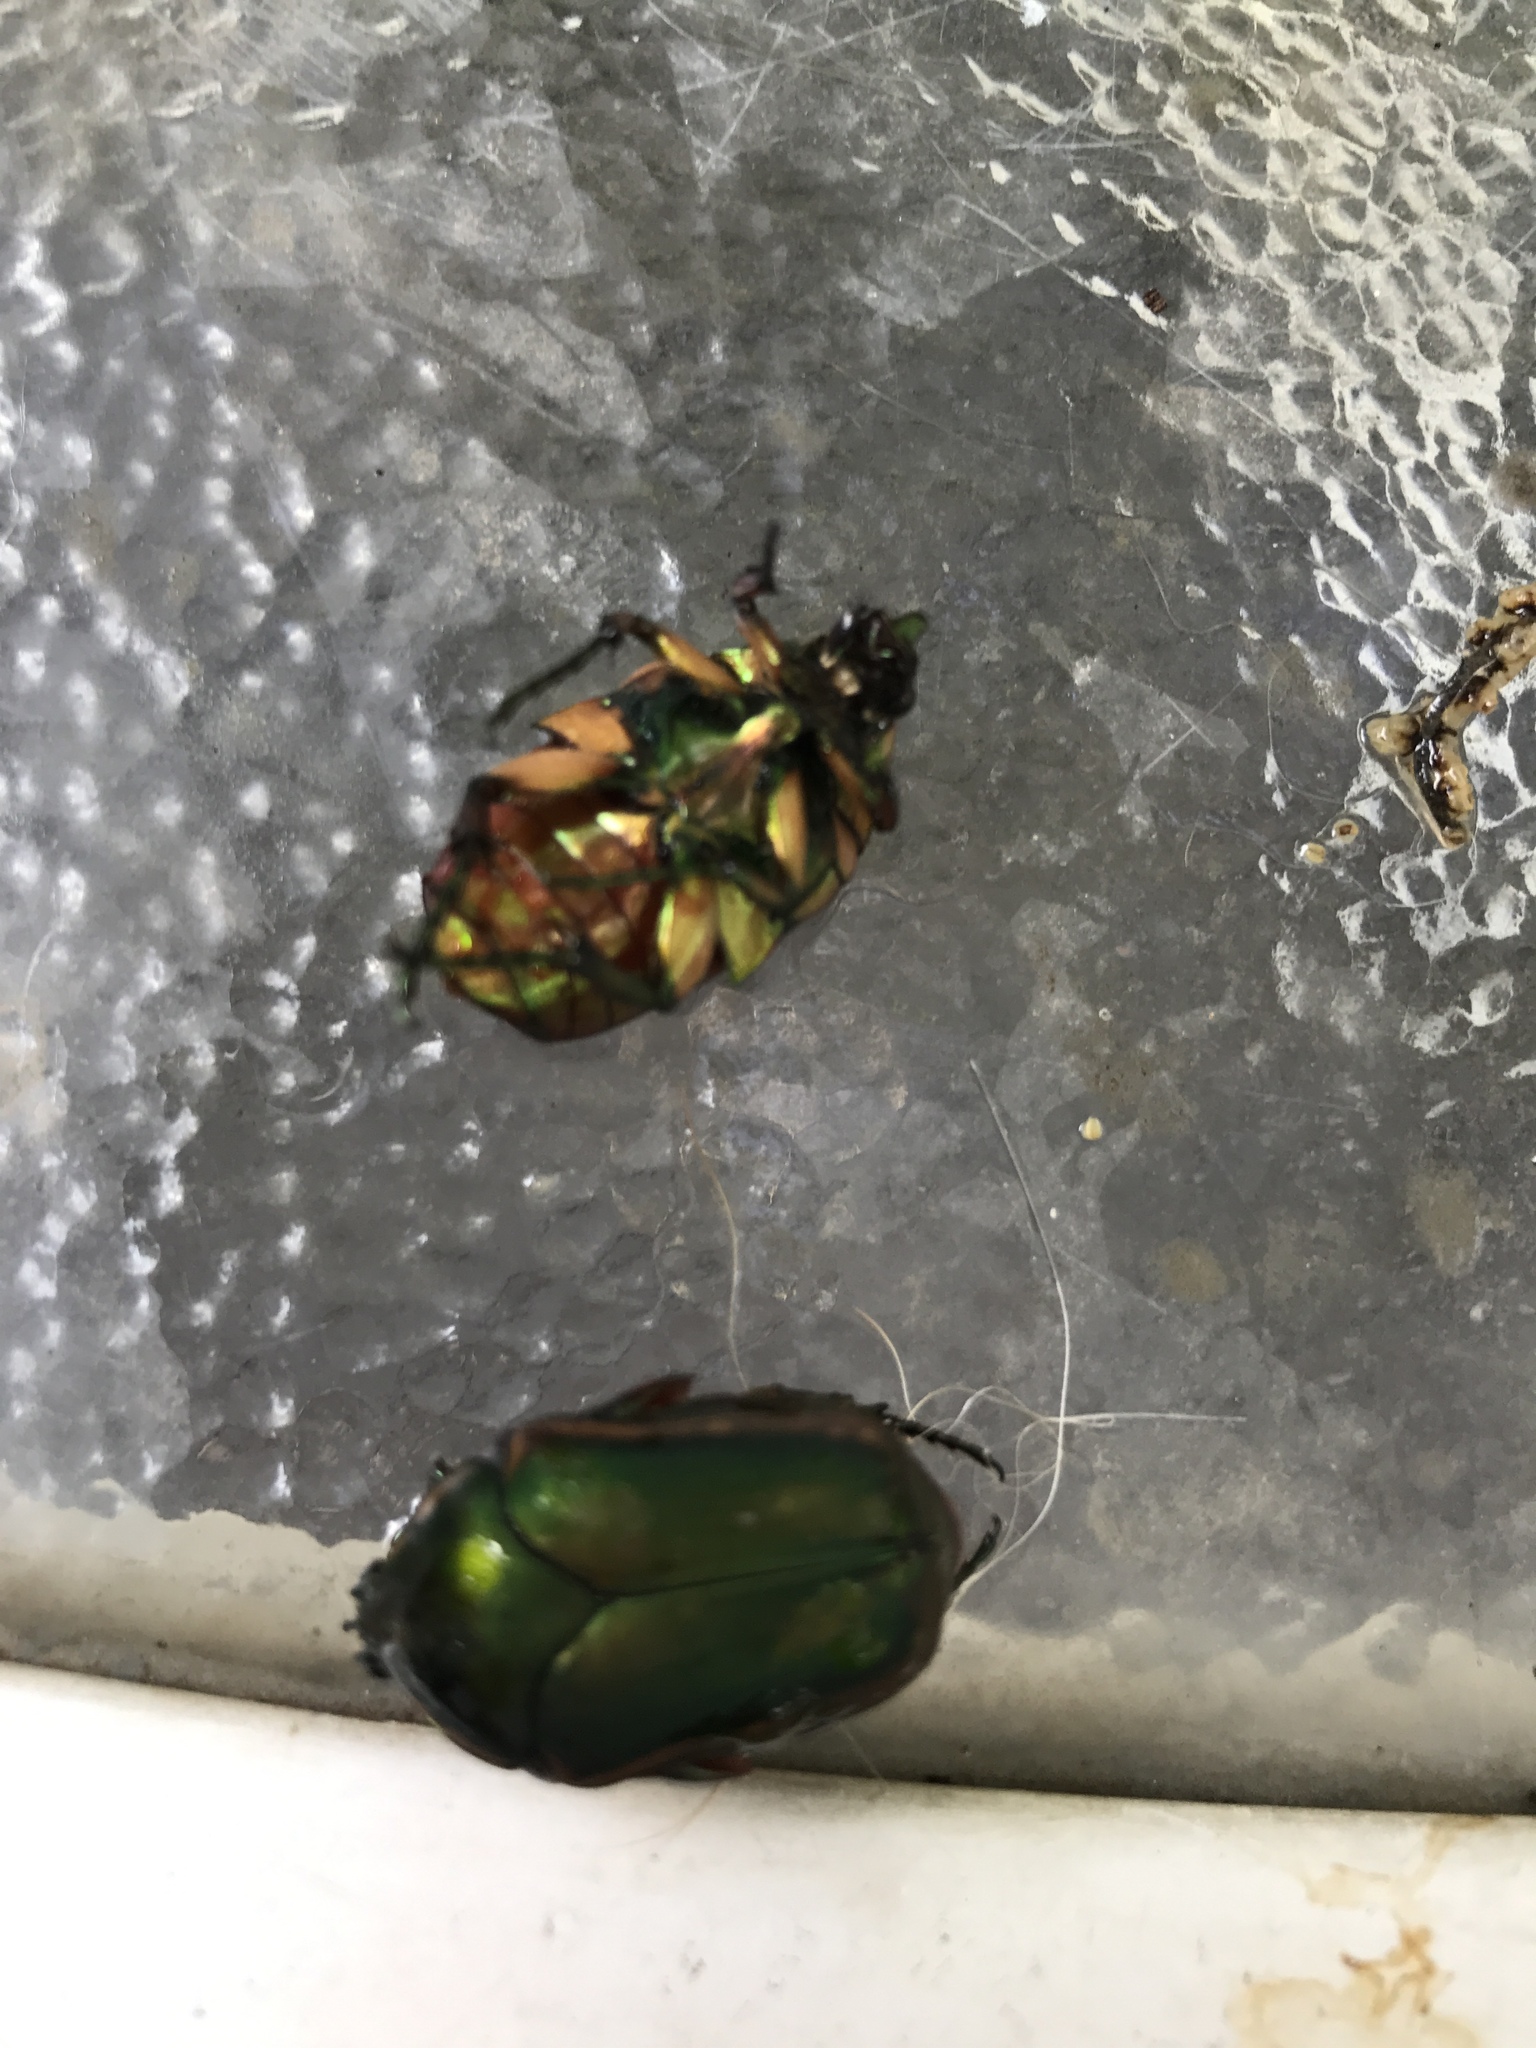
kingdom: Animalia
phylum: Arthropoda
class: Insecta
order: Coleoptera
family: Scarabaeidae
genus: Cotinis
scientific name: Cotinis nitida
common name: Common green june beetle
